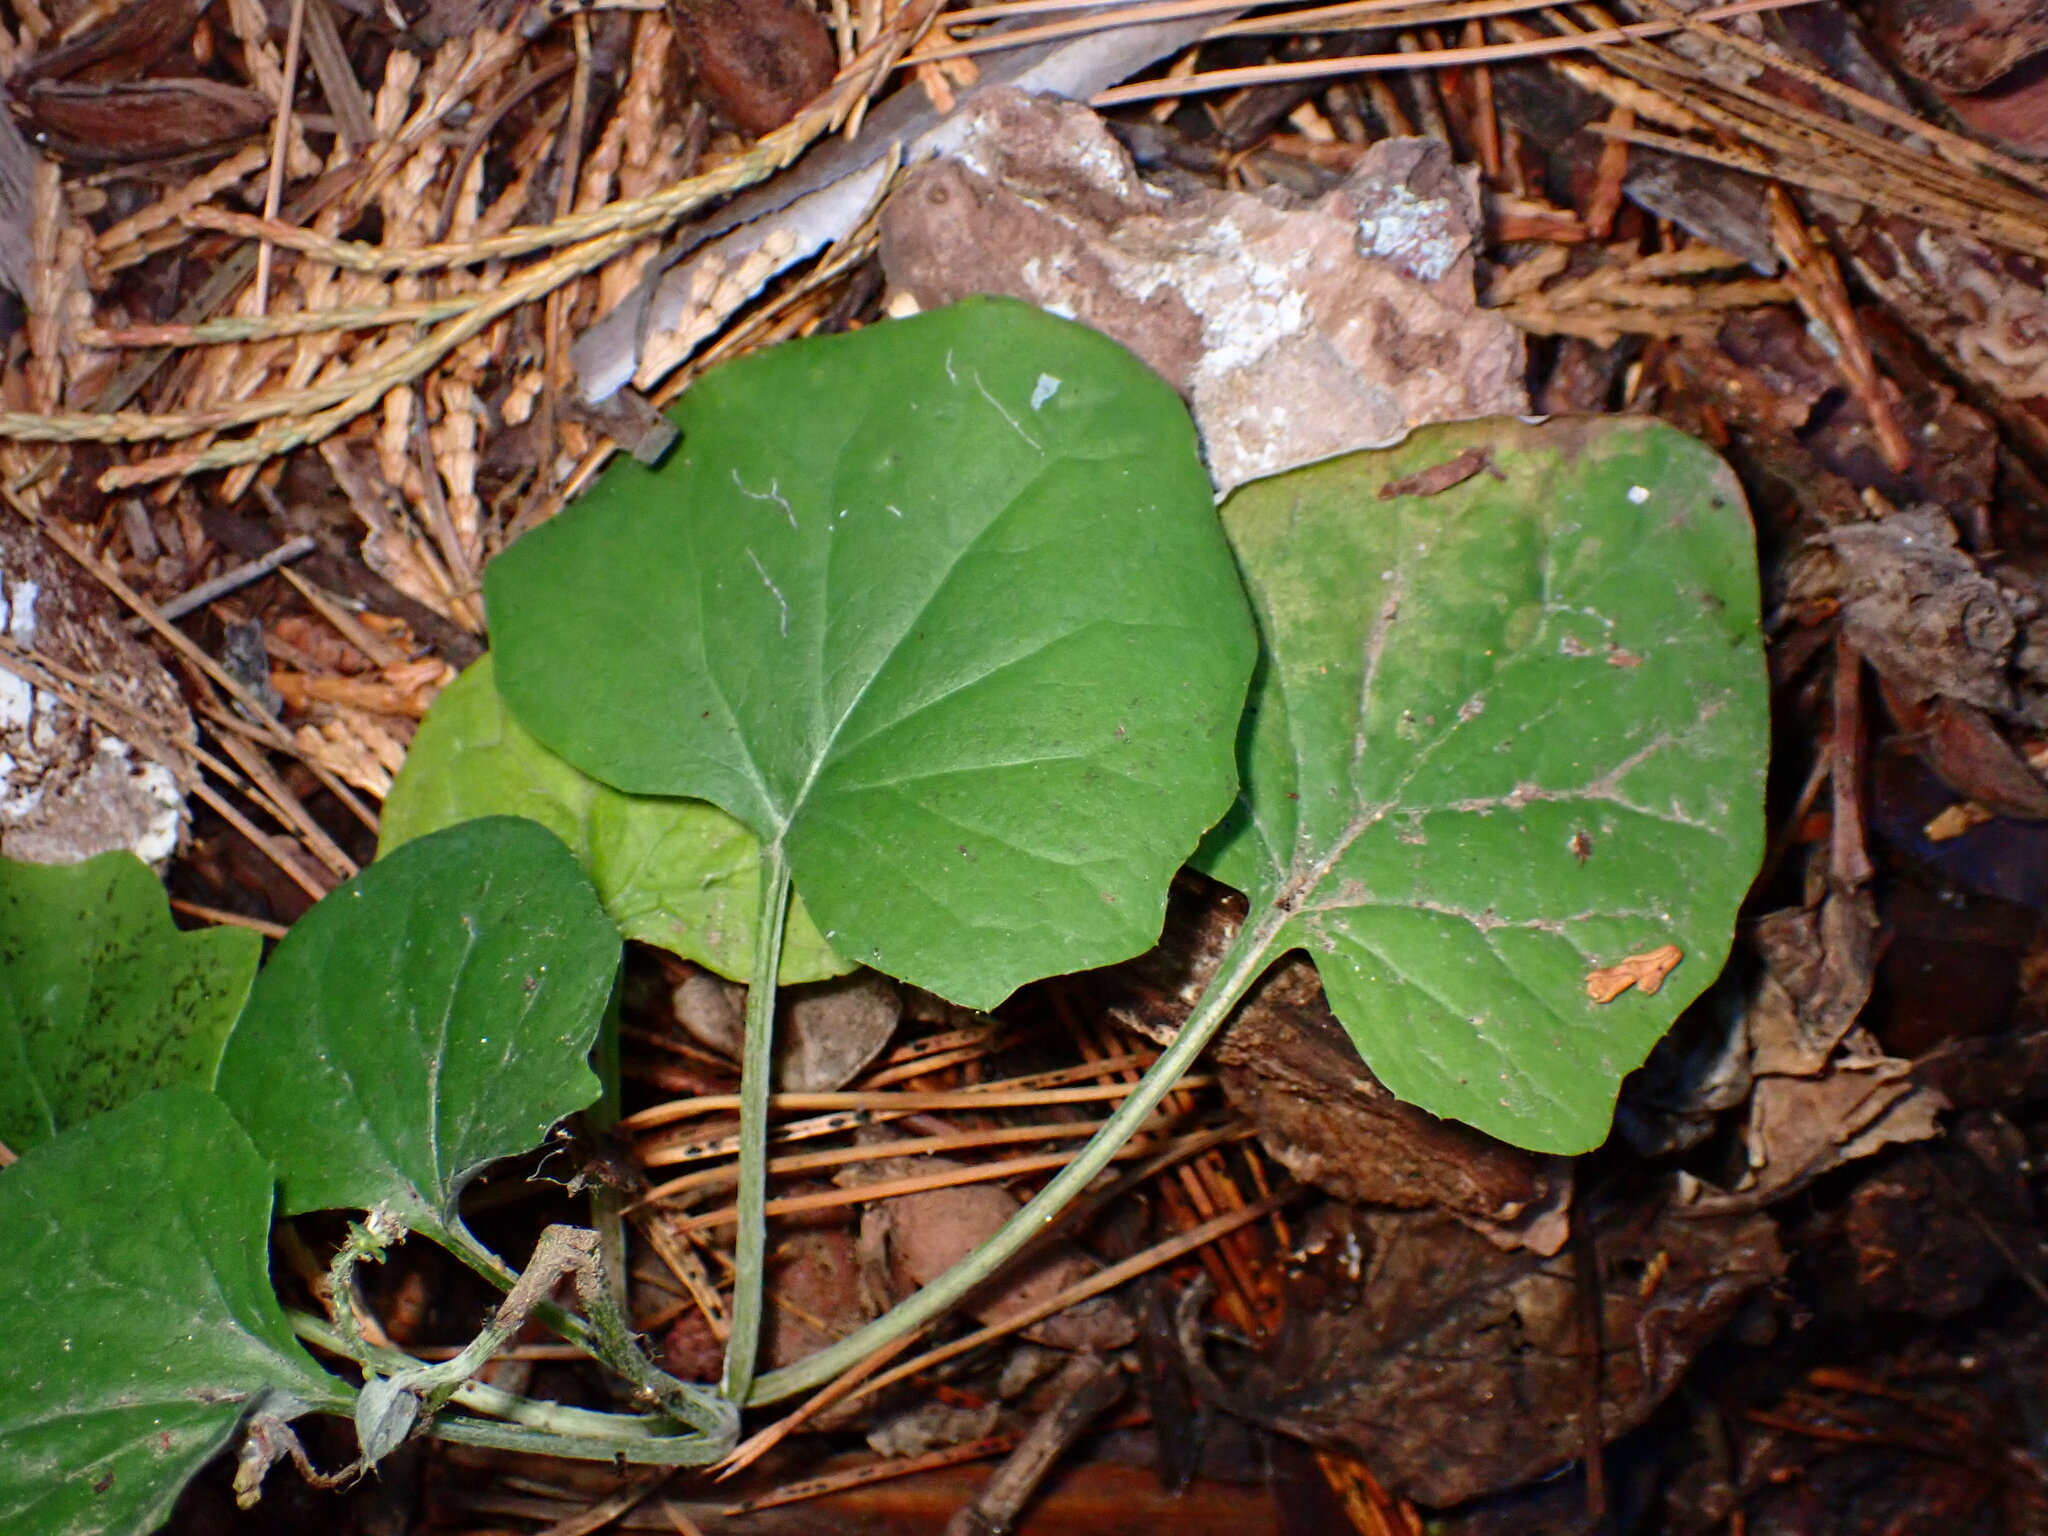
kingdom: Plantae
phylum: Tracheophyta
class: Magnoliopsida
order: Asterales
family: Asteraceae
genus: Adenocaulon
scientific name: Adenocaulon bicolor
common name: Trailplant
